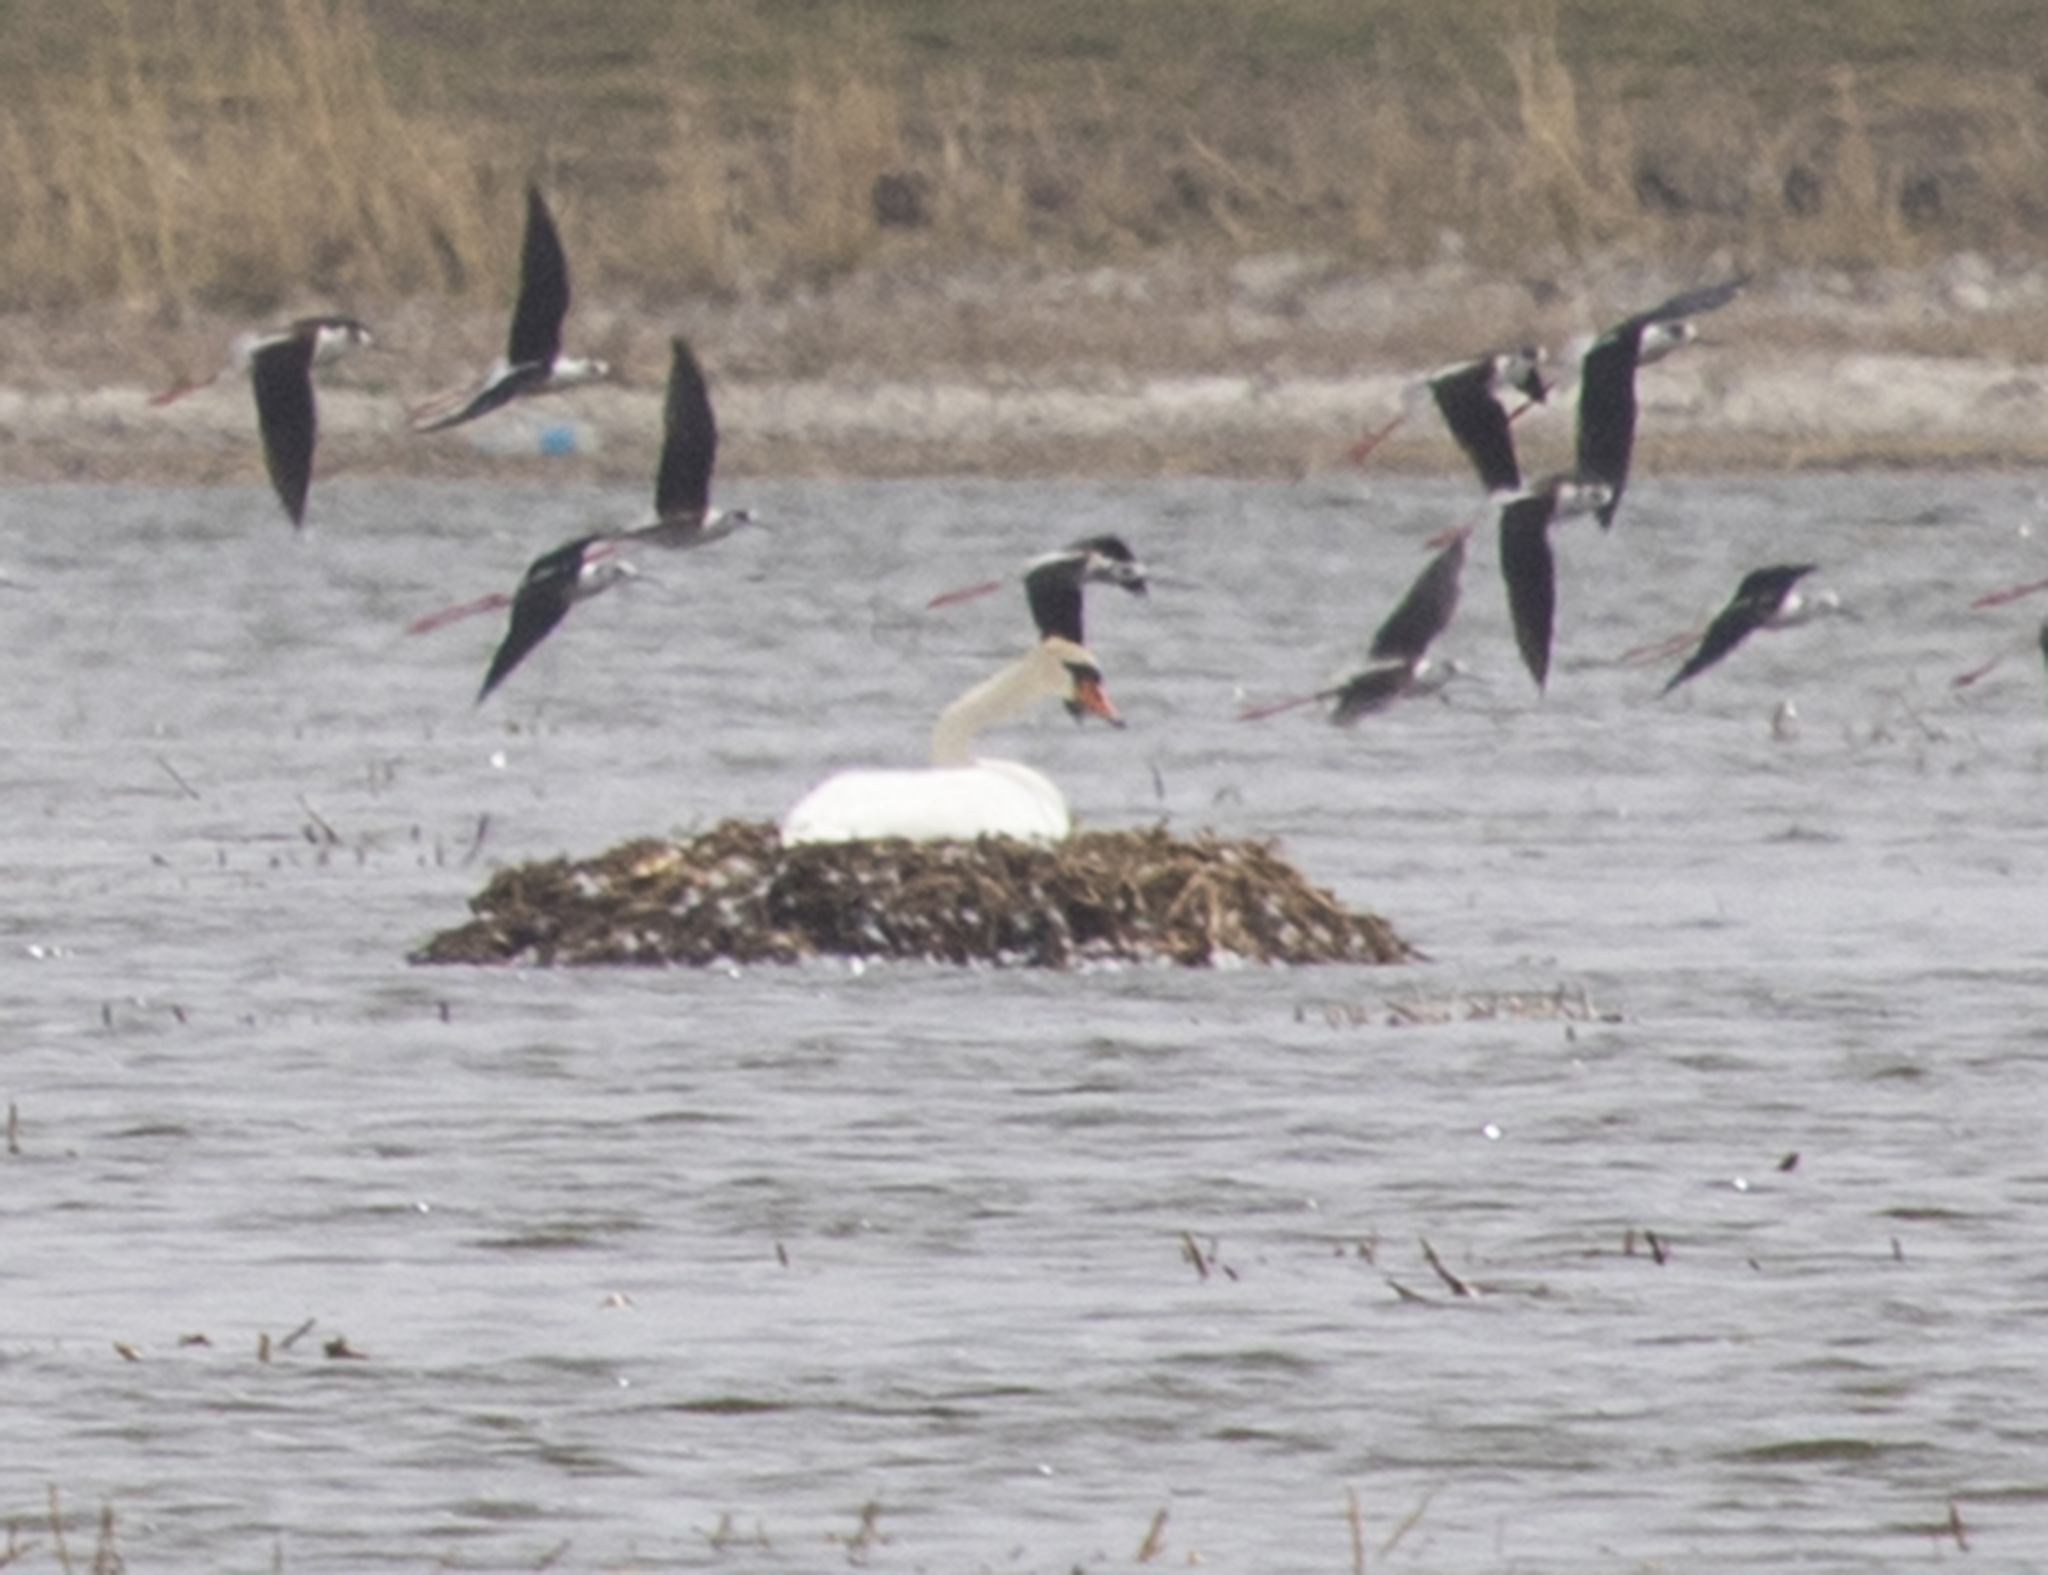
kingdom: Animalia
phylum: Chordata
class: Aves
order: Anseriformes
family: Anatidae
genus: Cygnus
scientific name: Cygnus olor
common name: Mute swan
